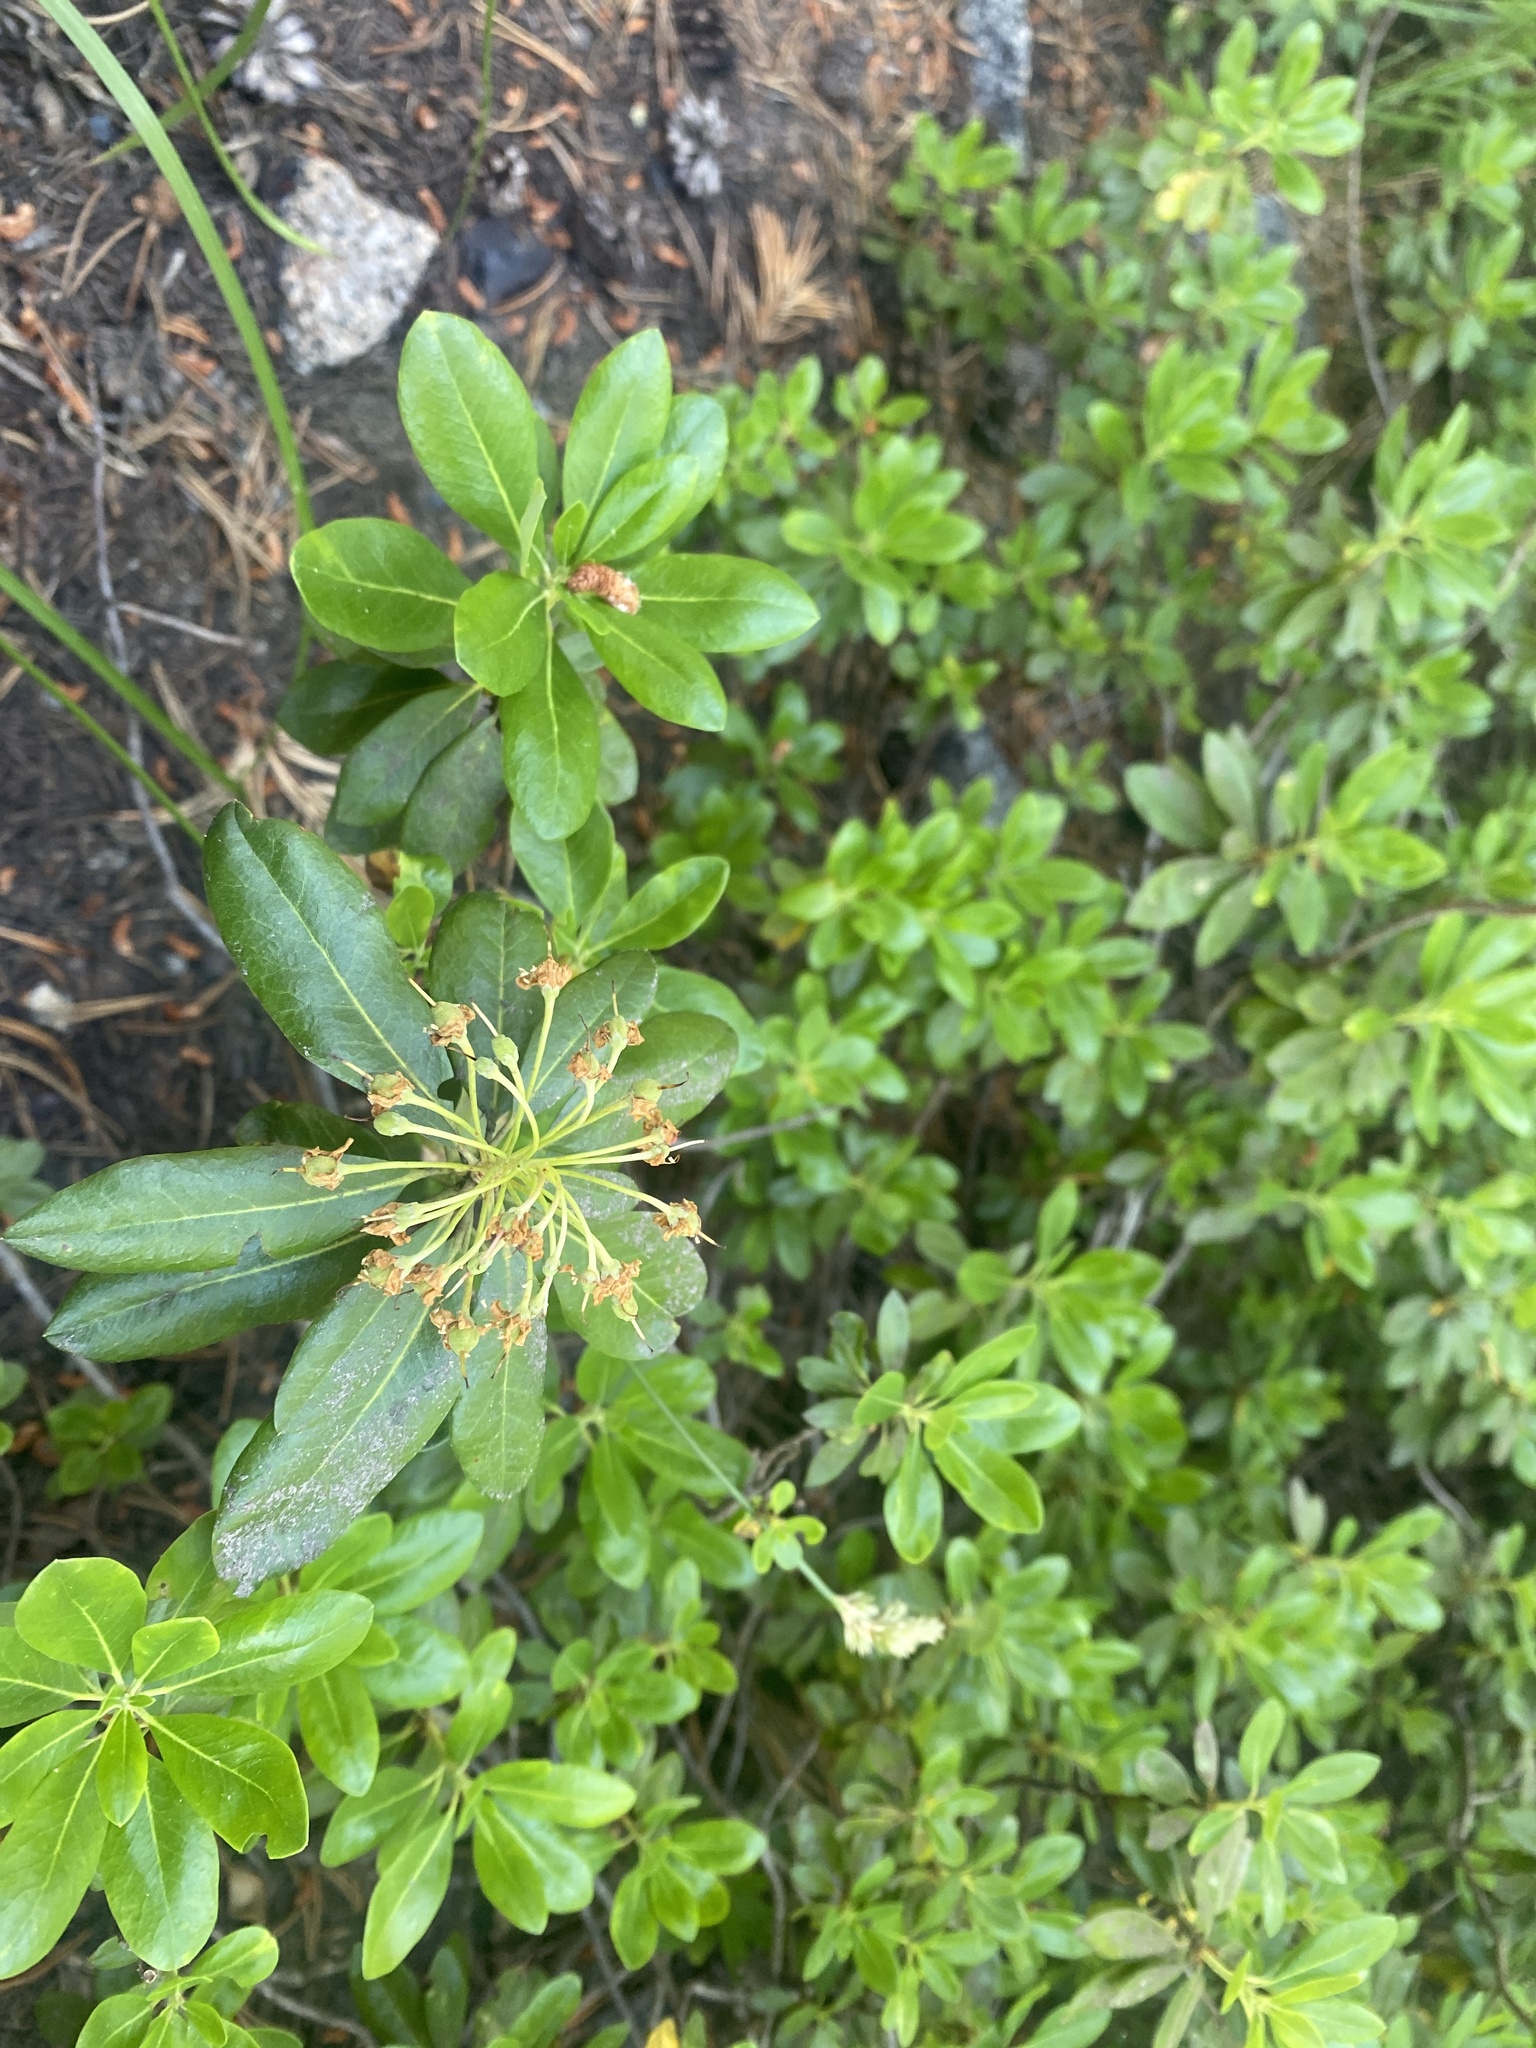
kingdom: Plantae
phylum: Tracheophyta
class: Magnoliopsida
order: Ericales
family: Ericaceae
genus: Rhododendron
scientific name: Rhododendron columbianum
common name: Western labrador tea
